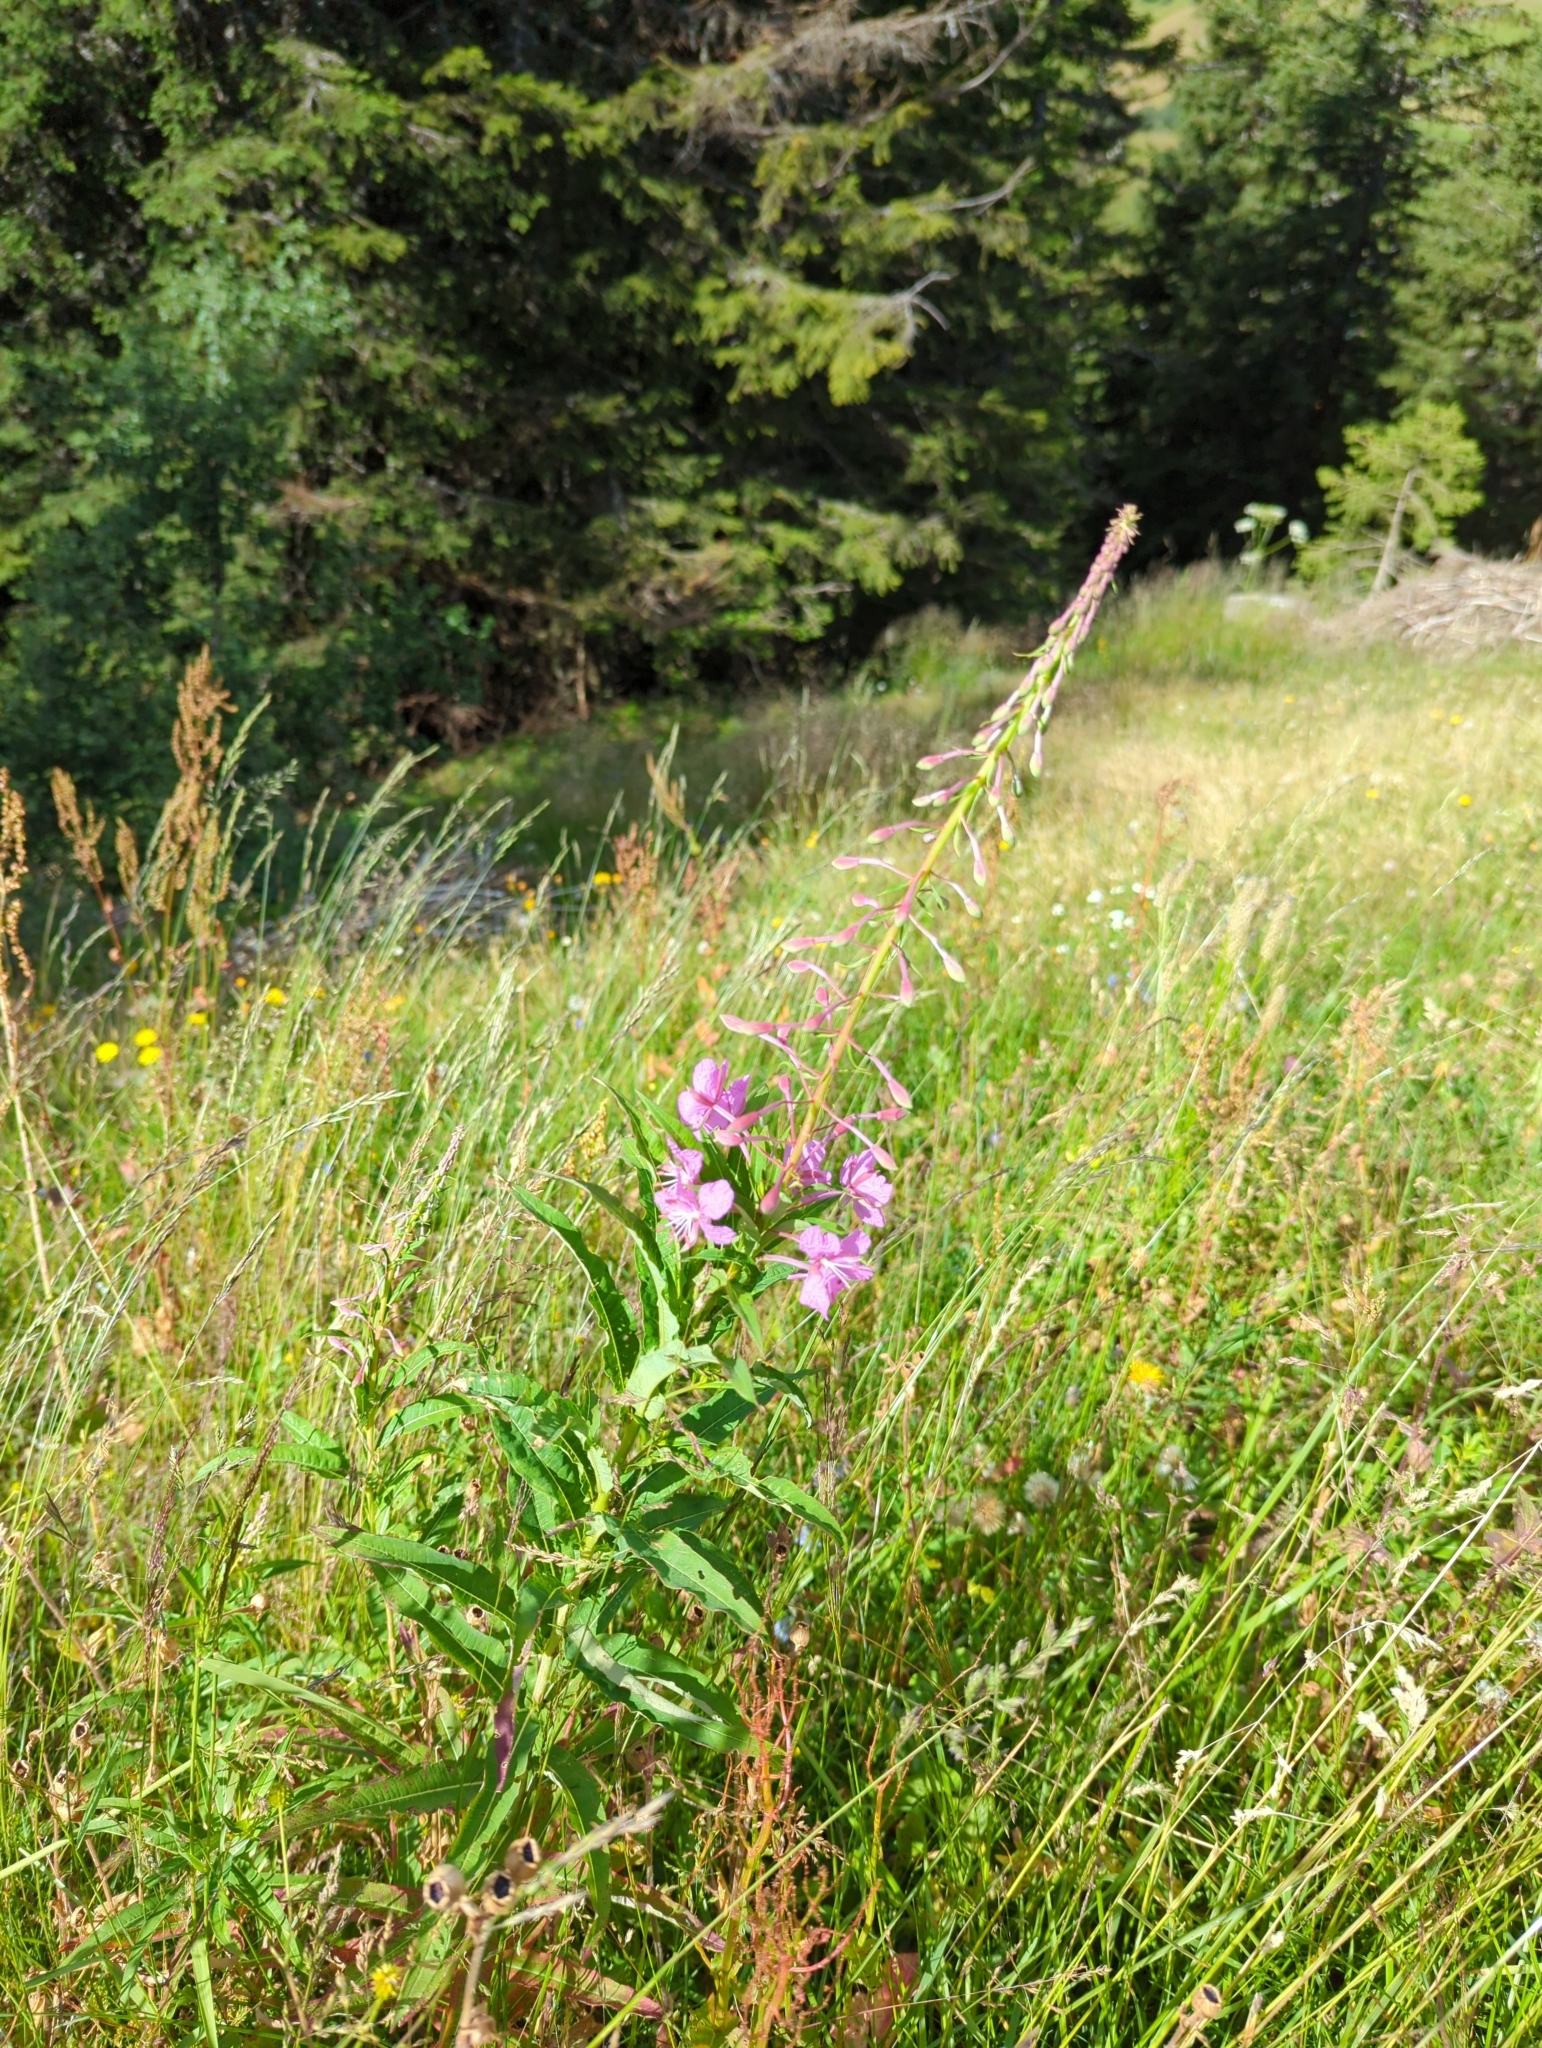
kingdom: Plantae
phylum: Tracheophyta
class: Magnoliopsida
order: Myrtales
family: Onagraceae
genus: Chamaenerion
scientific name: Chamaenerion angustifolium
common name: Fireweed
